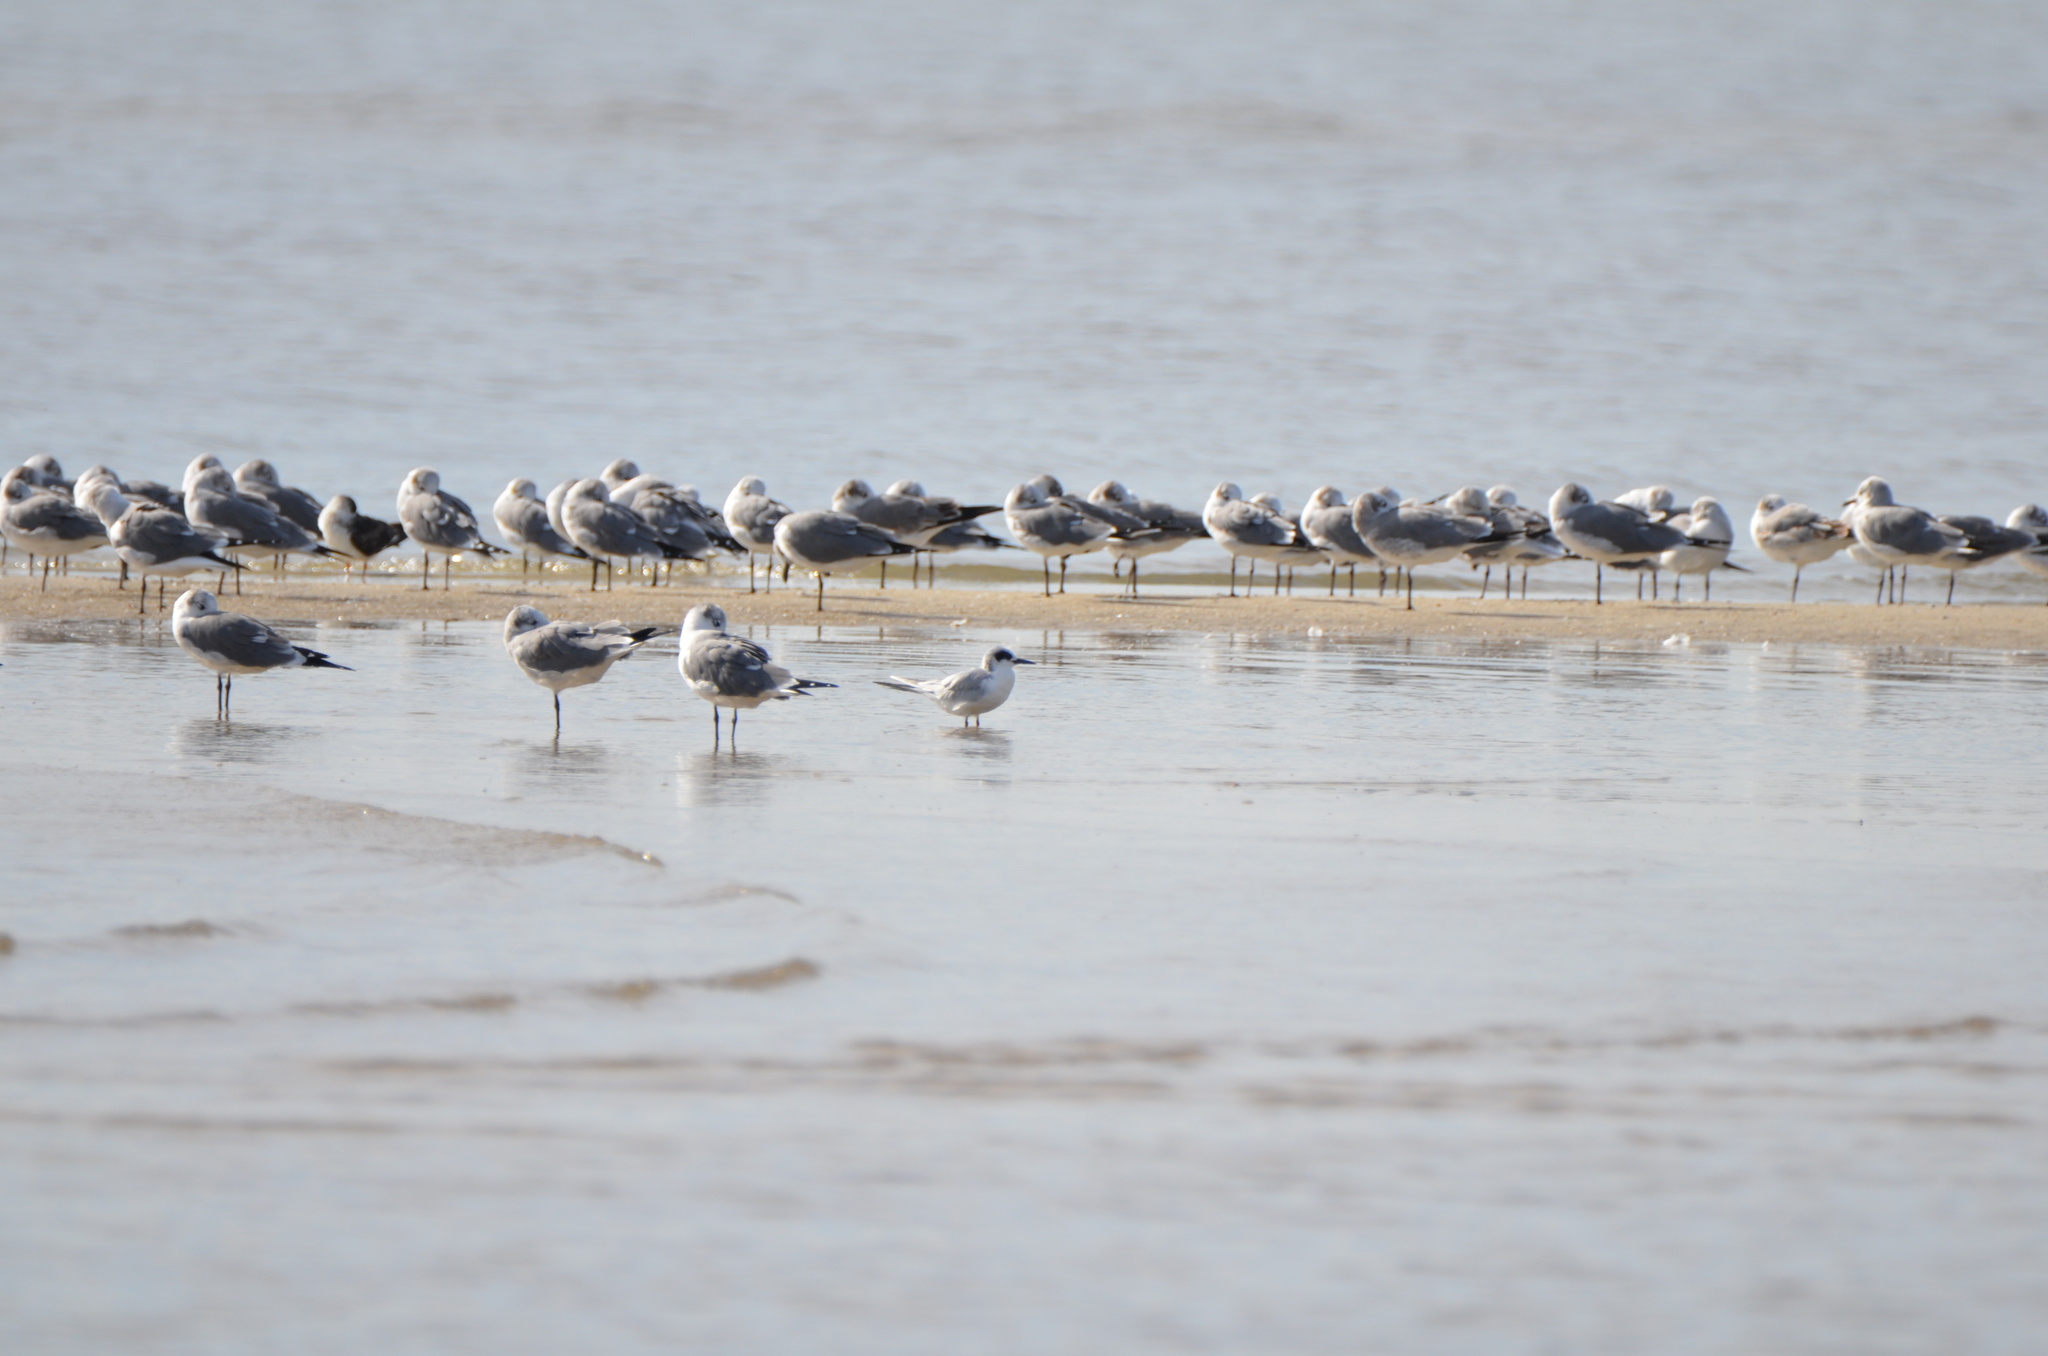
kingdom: Animalia
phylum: Chordata
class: Aves
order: Charadriiformes
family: Laridae
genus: Sterna
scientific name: Sterna forsteri
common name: Forster's tern
